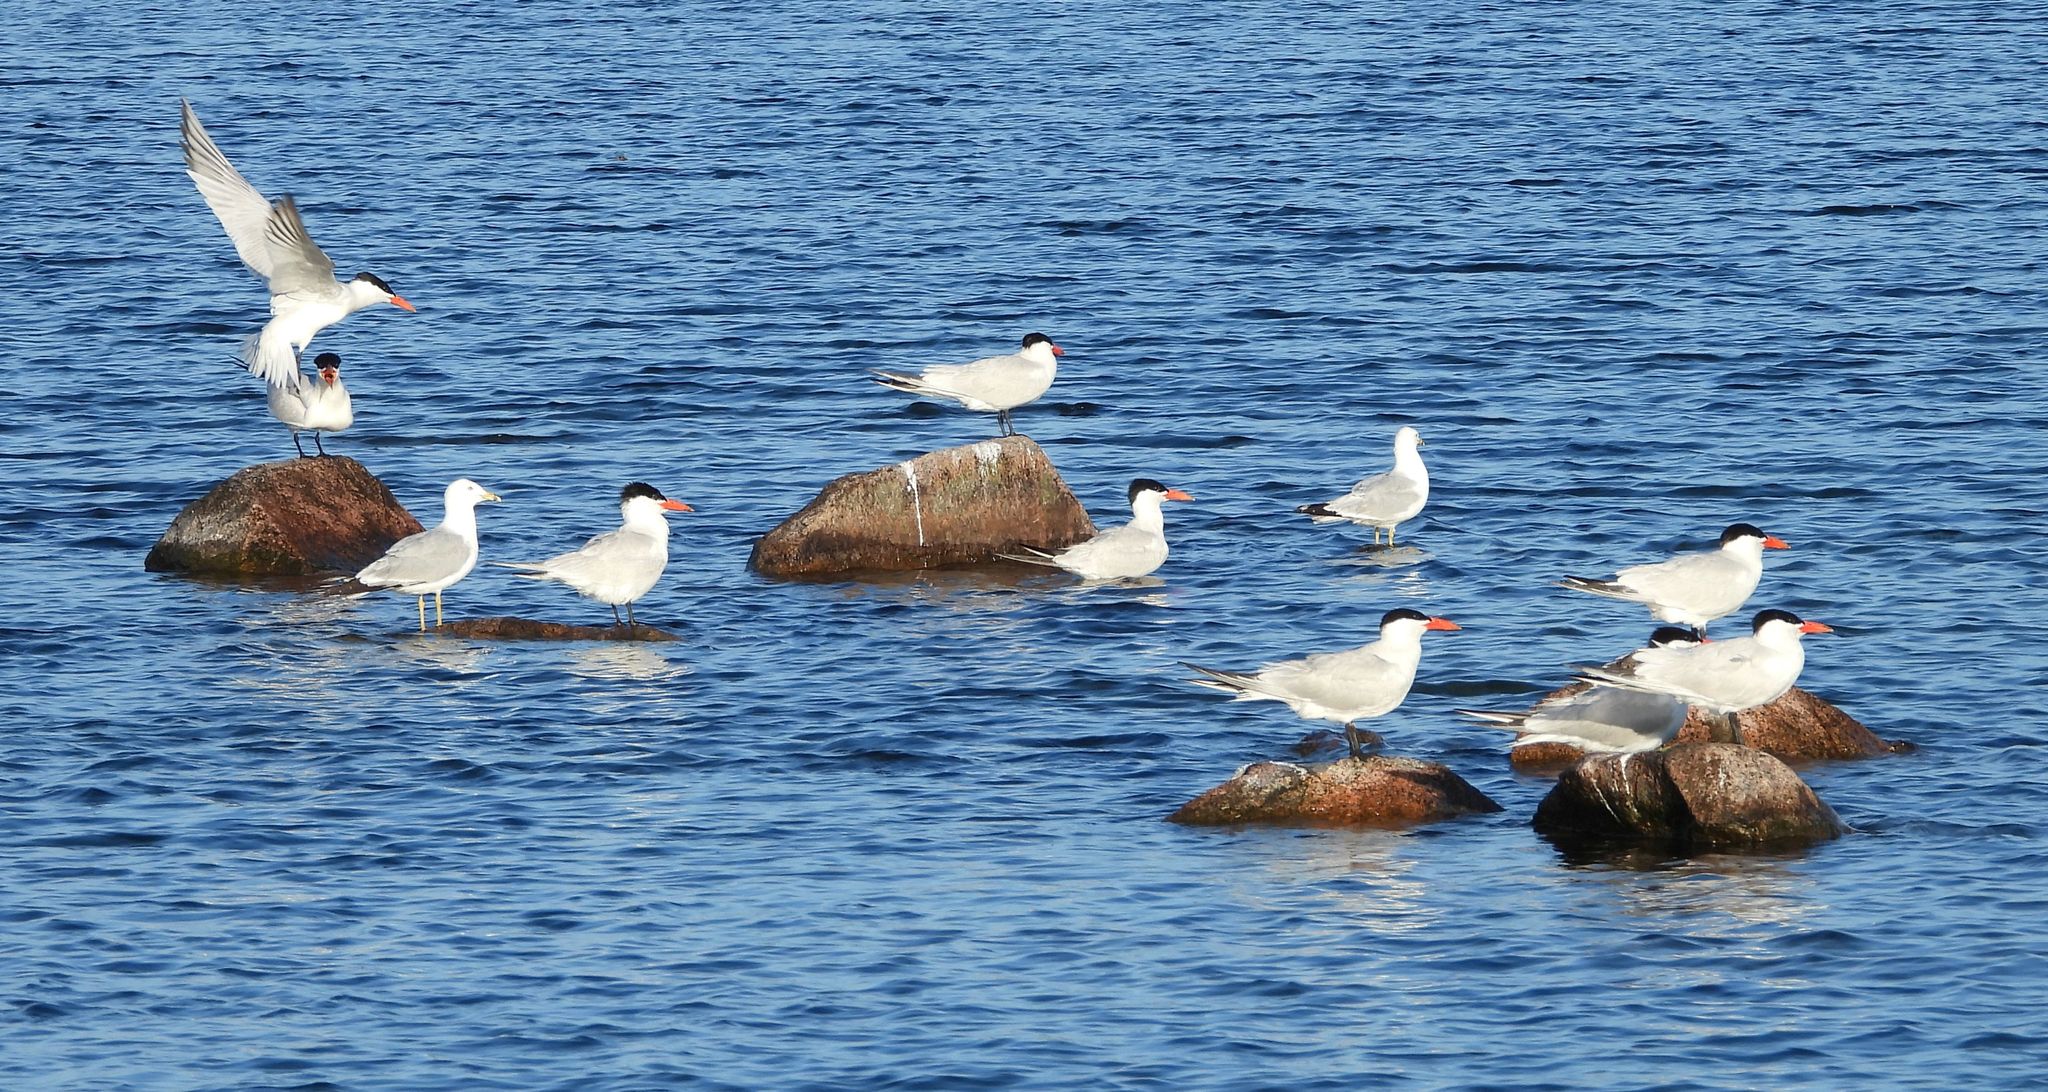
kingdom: Animalia
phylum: Chordata
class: Aves
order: Charadriiformes
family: Laridae
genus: Hydroprogne
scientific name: Hydroprogne caspia
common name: Caspian tern
